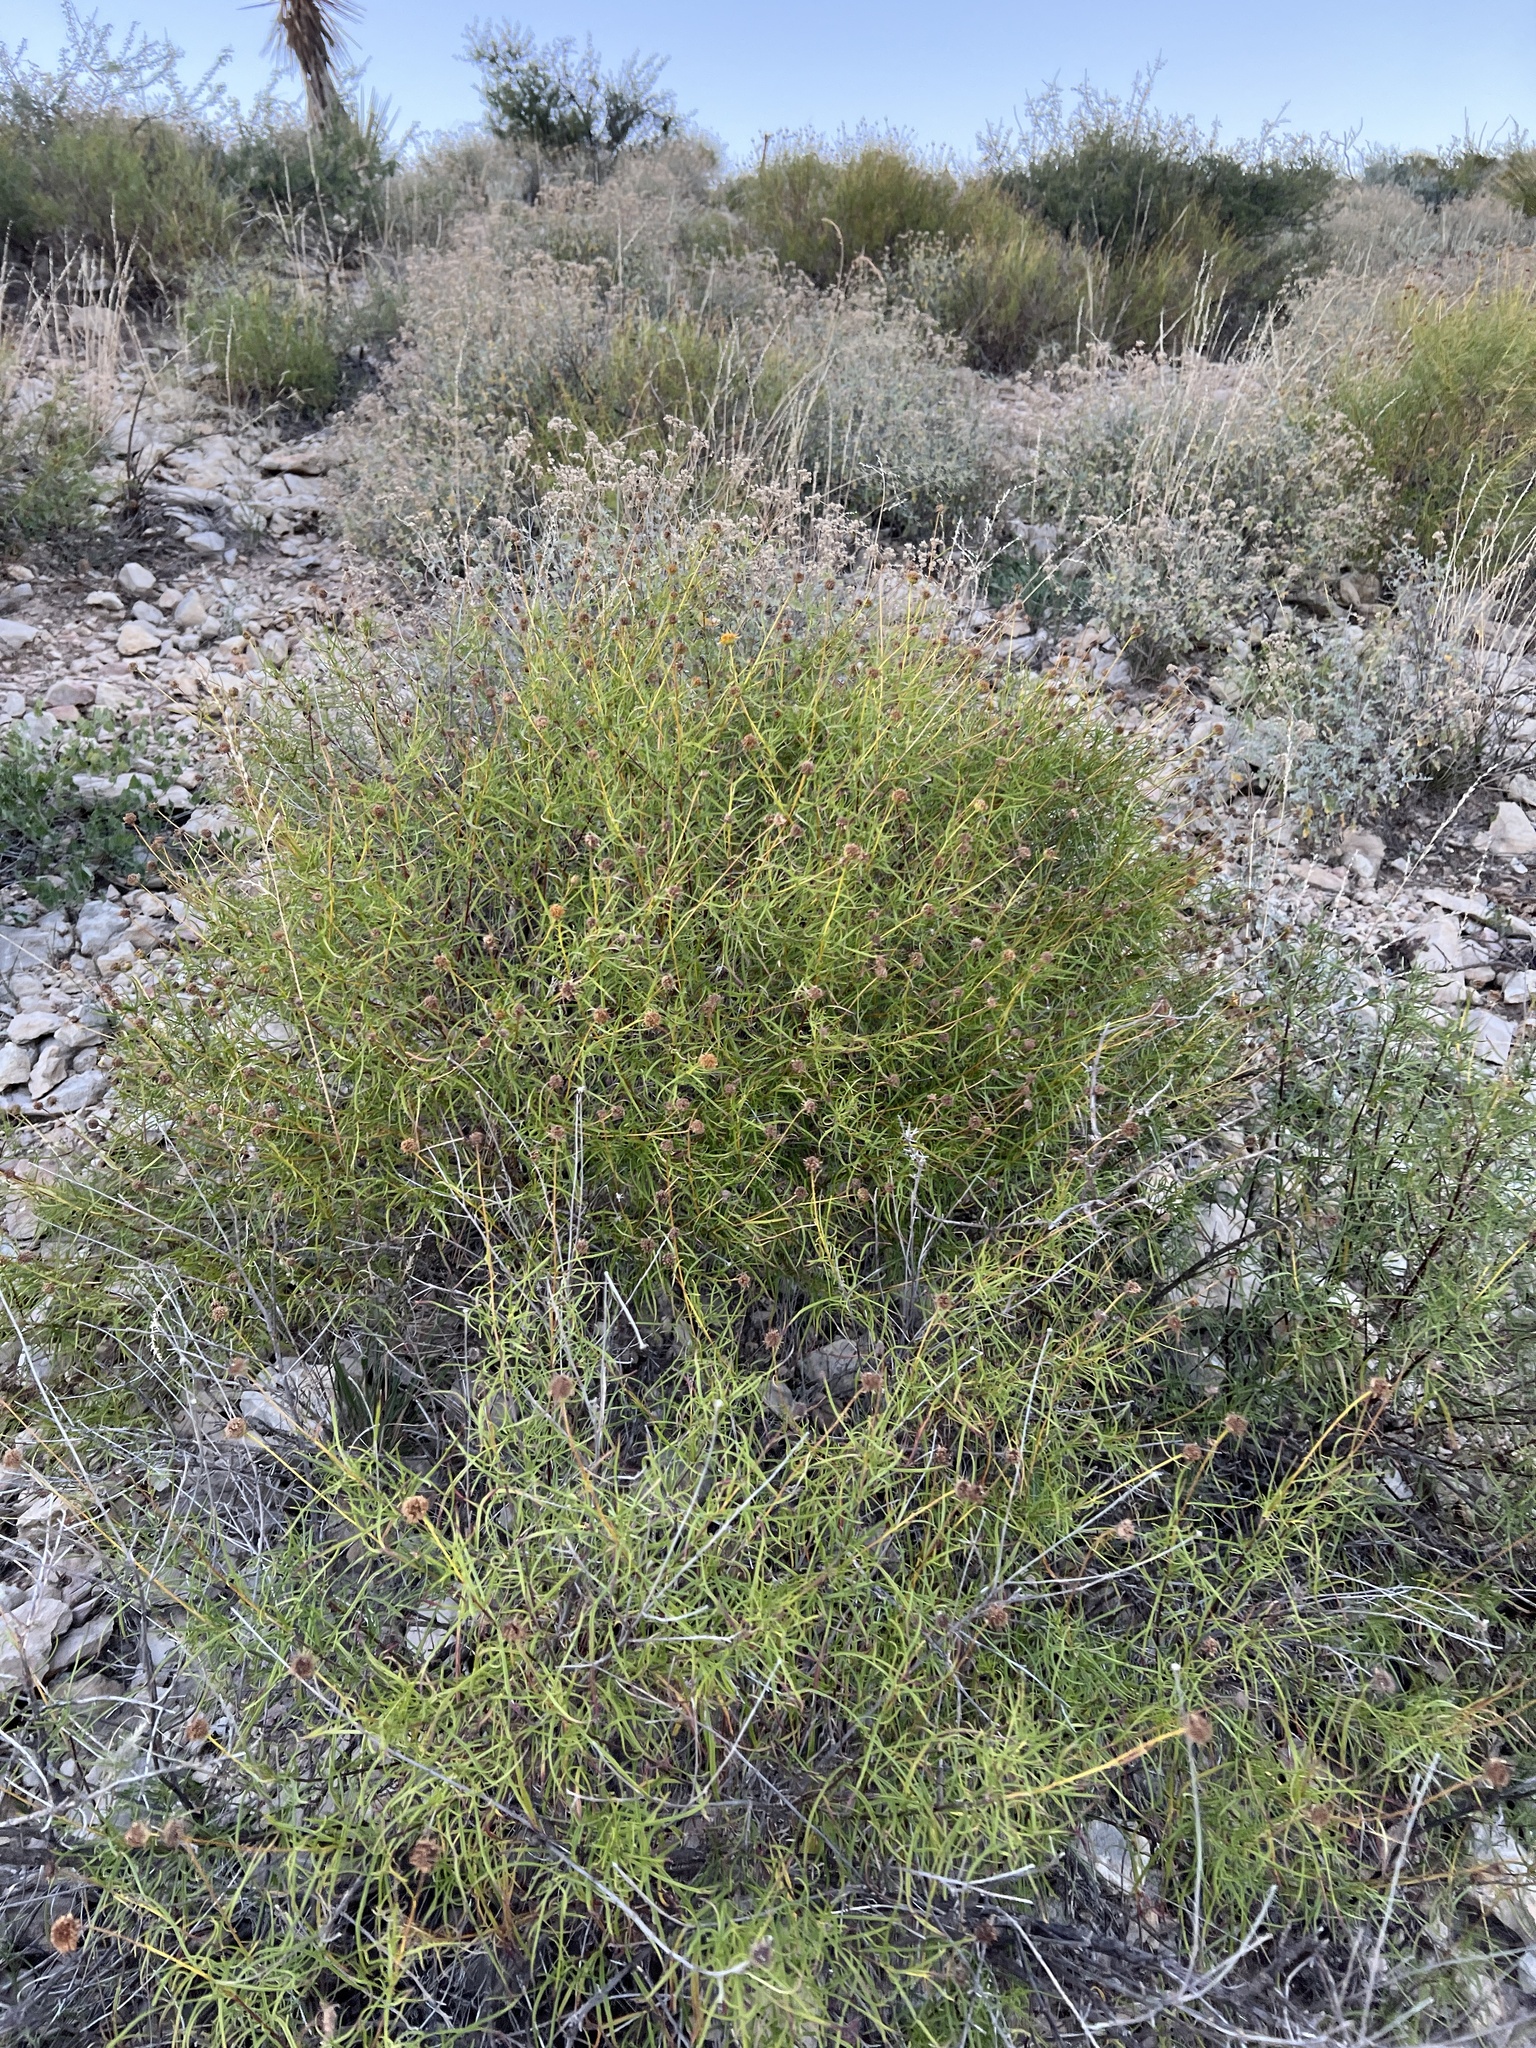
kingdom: Plantae
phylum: Tracheophyta
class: Magnoliopsida
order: Asterales
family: Asteraceae
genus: Sidneya
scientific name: Sidneya tenuifolia
